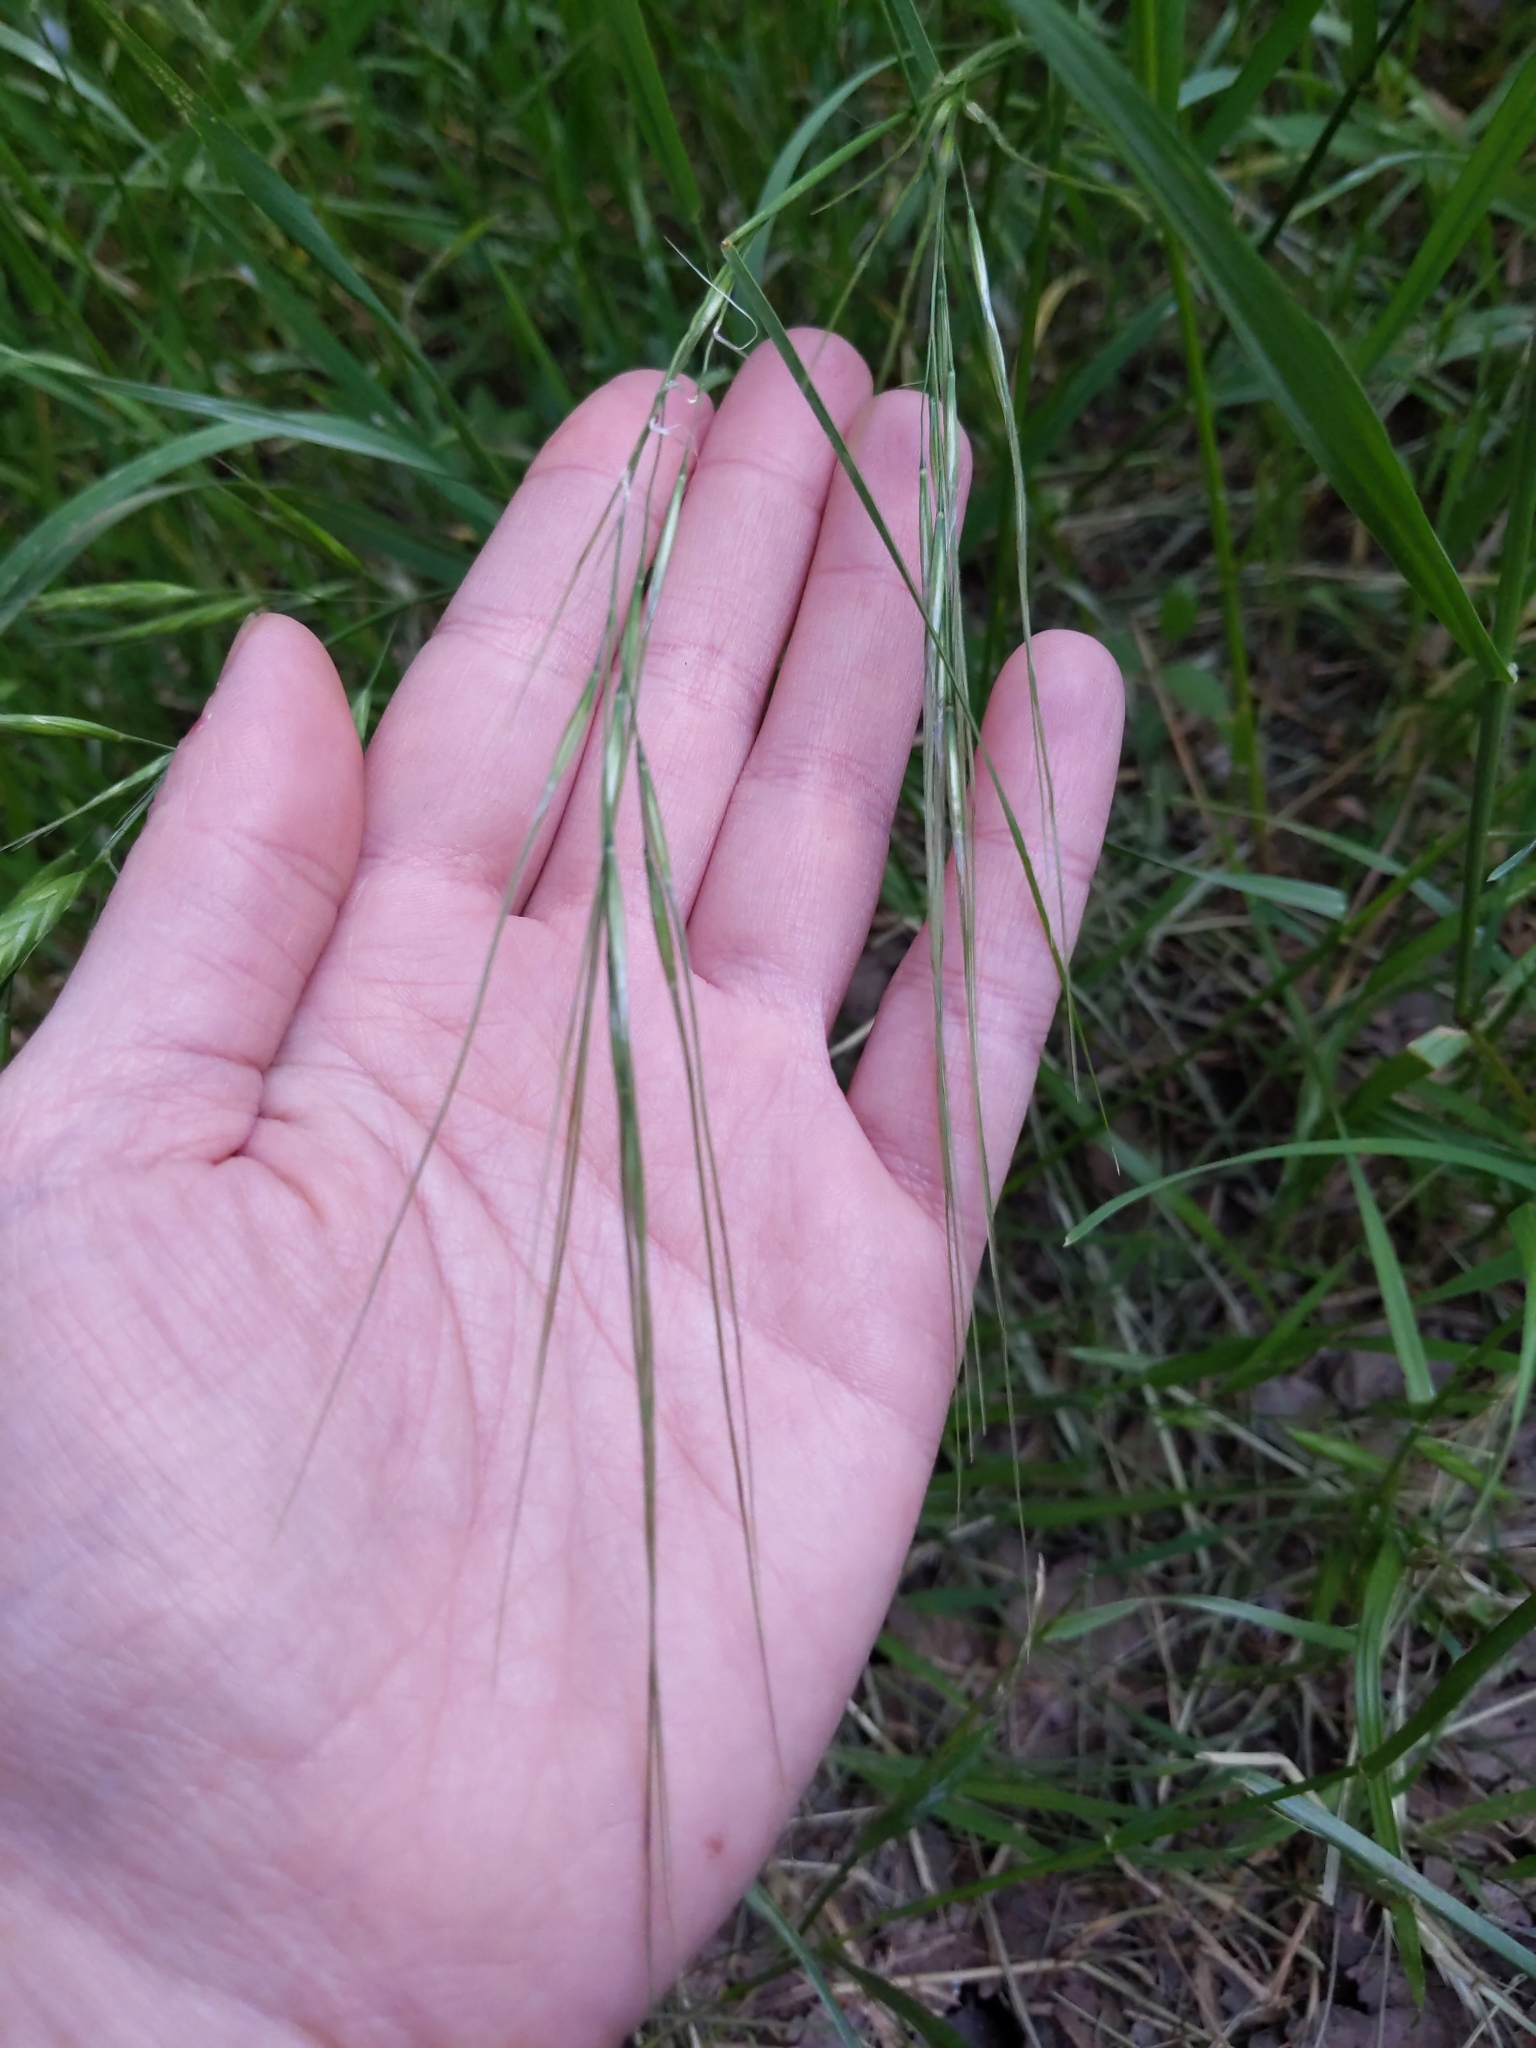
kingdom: Plantae
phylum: Tracheophyta
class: Liliopsida
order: Poales
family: Poaceae
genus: Nassella
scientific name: Nassella leucotricha
